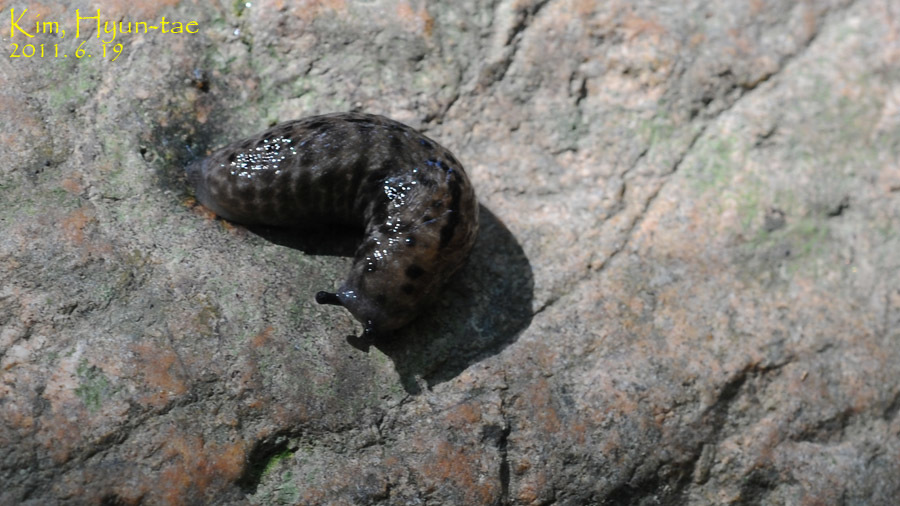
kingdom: Animalia
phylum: Mollusca
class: Gastropoda
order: Stylommatophora
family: Philomycidae
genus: Meghimatium
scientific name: Meghimatium fruhstorferi
